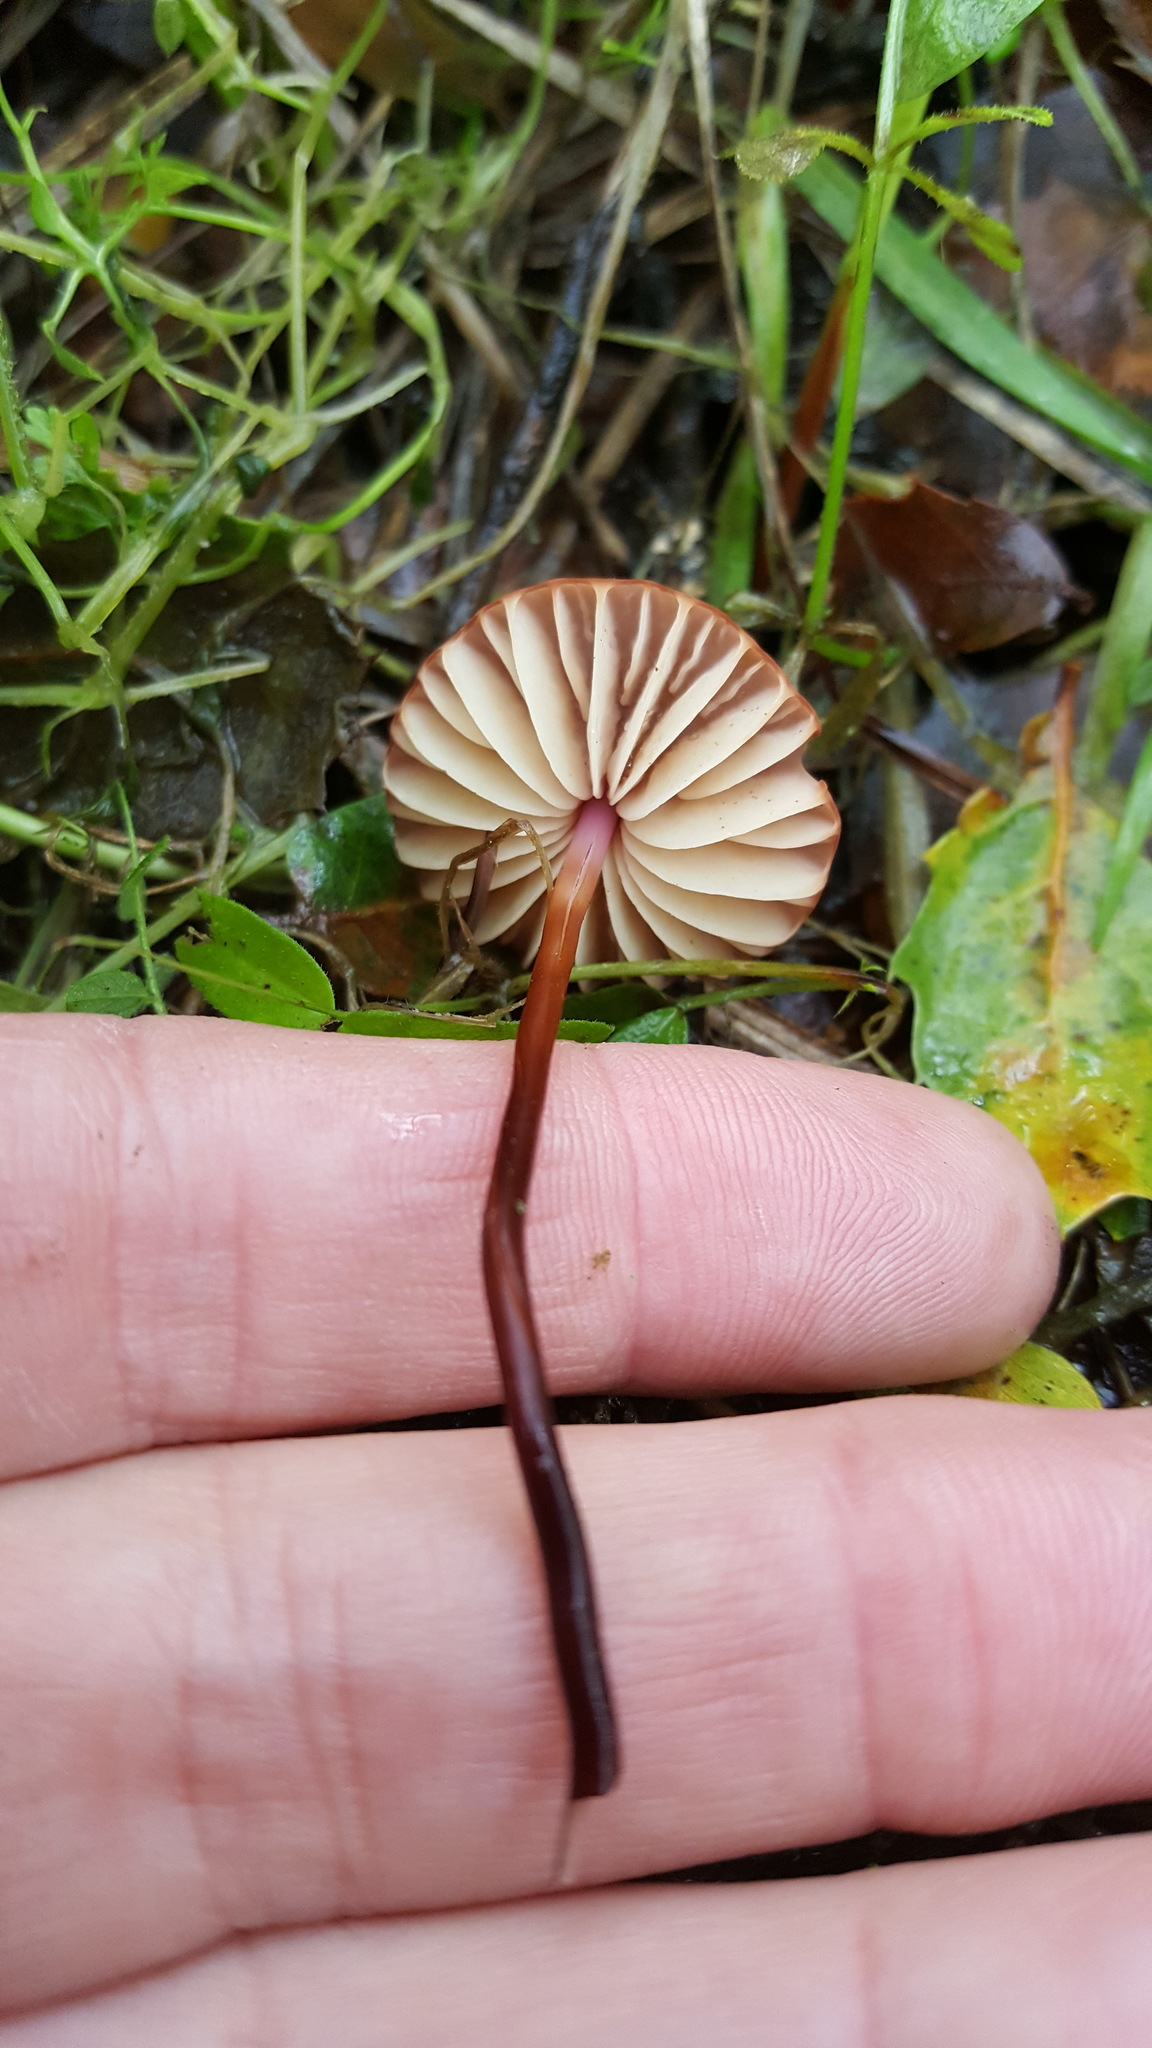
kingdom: Fungi
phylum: Basidiomycota
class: Agaricomycetes
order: Agaricales
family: Marasmiaceae
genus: Marasmius
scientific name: Marasmius plicatulus
